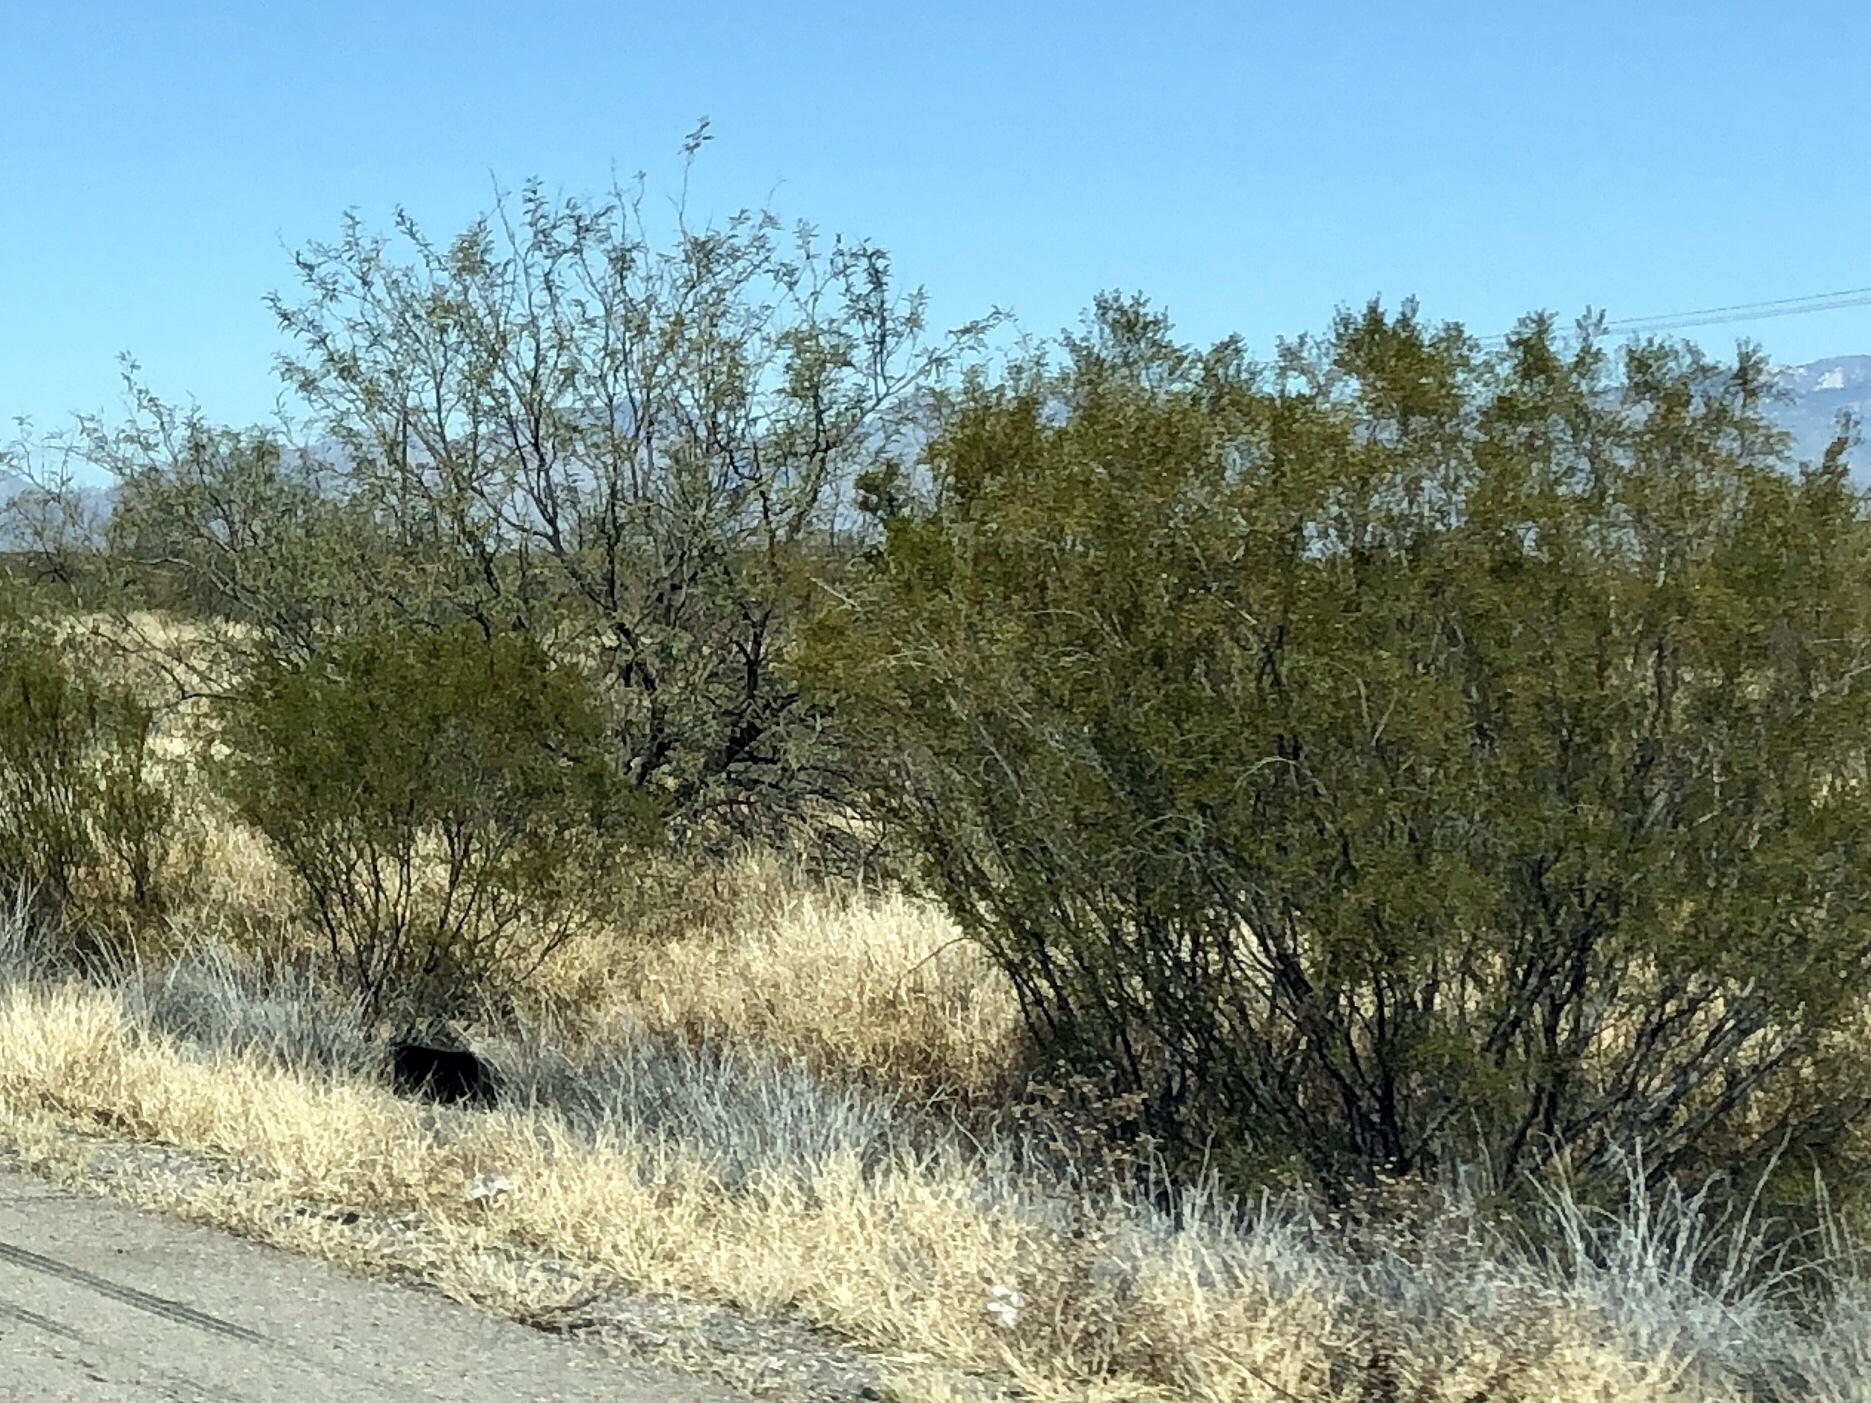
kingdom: Plantae
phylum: Tracheophyta
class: Magnoliopsida
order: Zygophyllales
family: Zygophyllaceae
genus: Larrea
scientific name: Larrea tridentata
